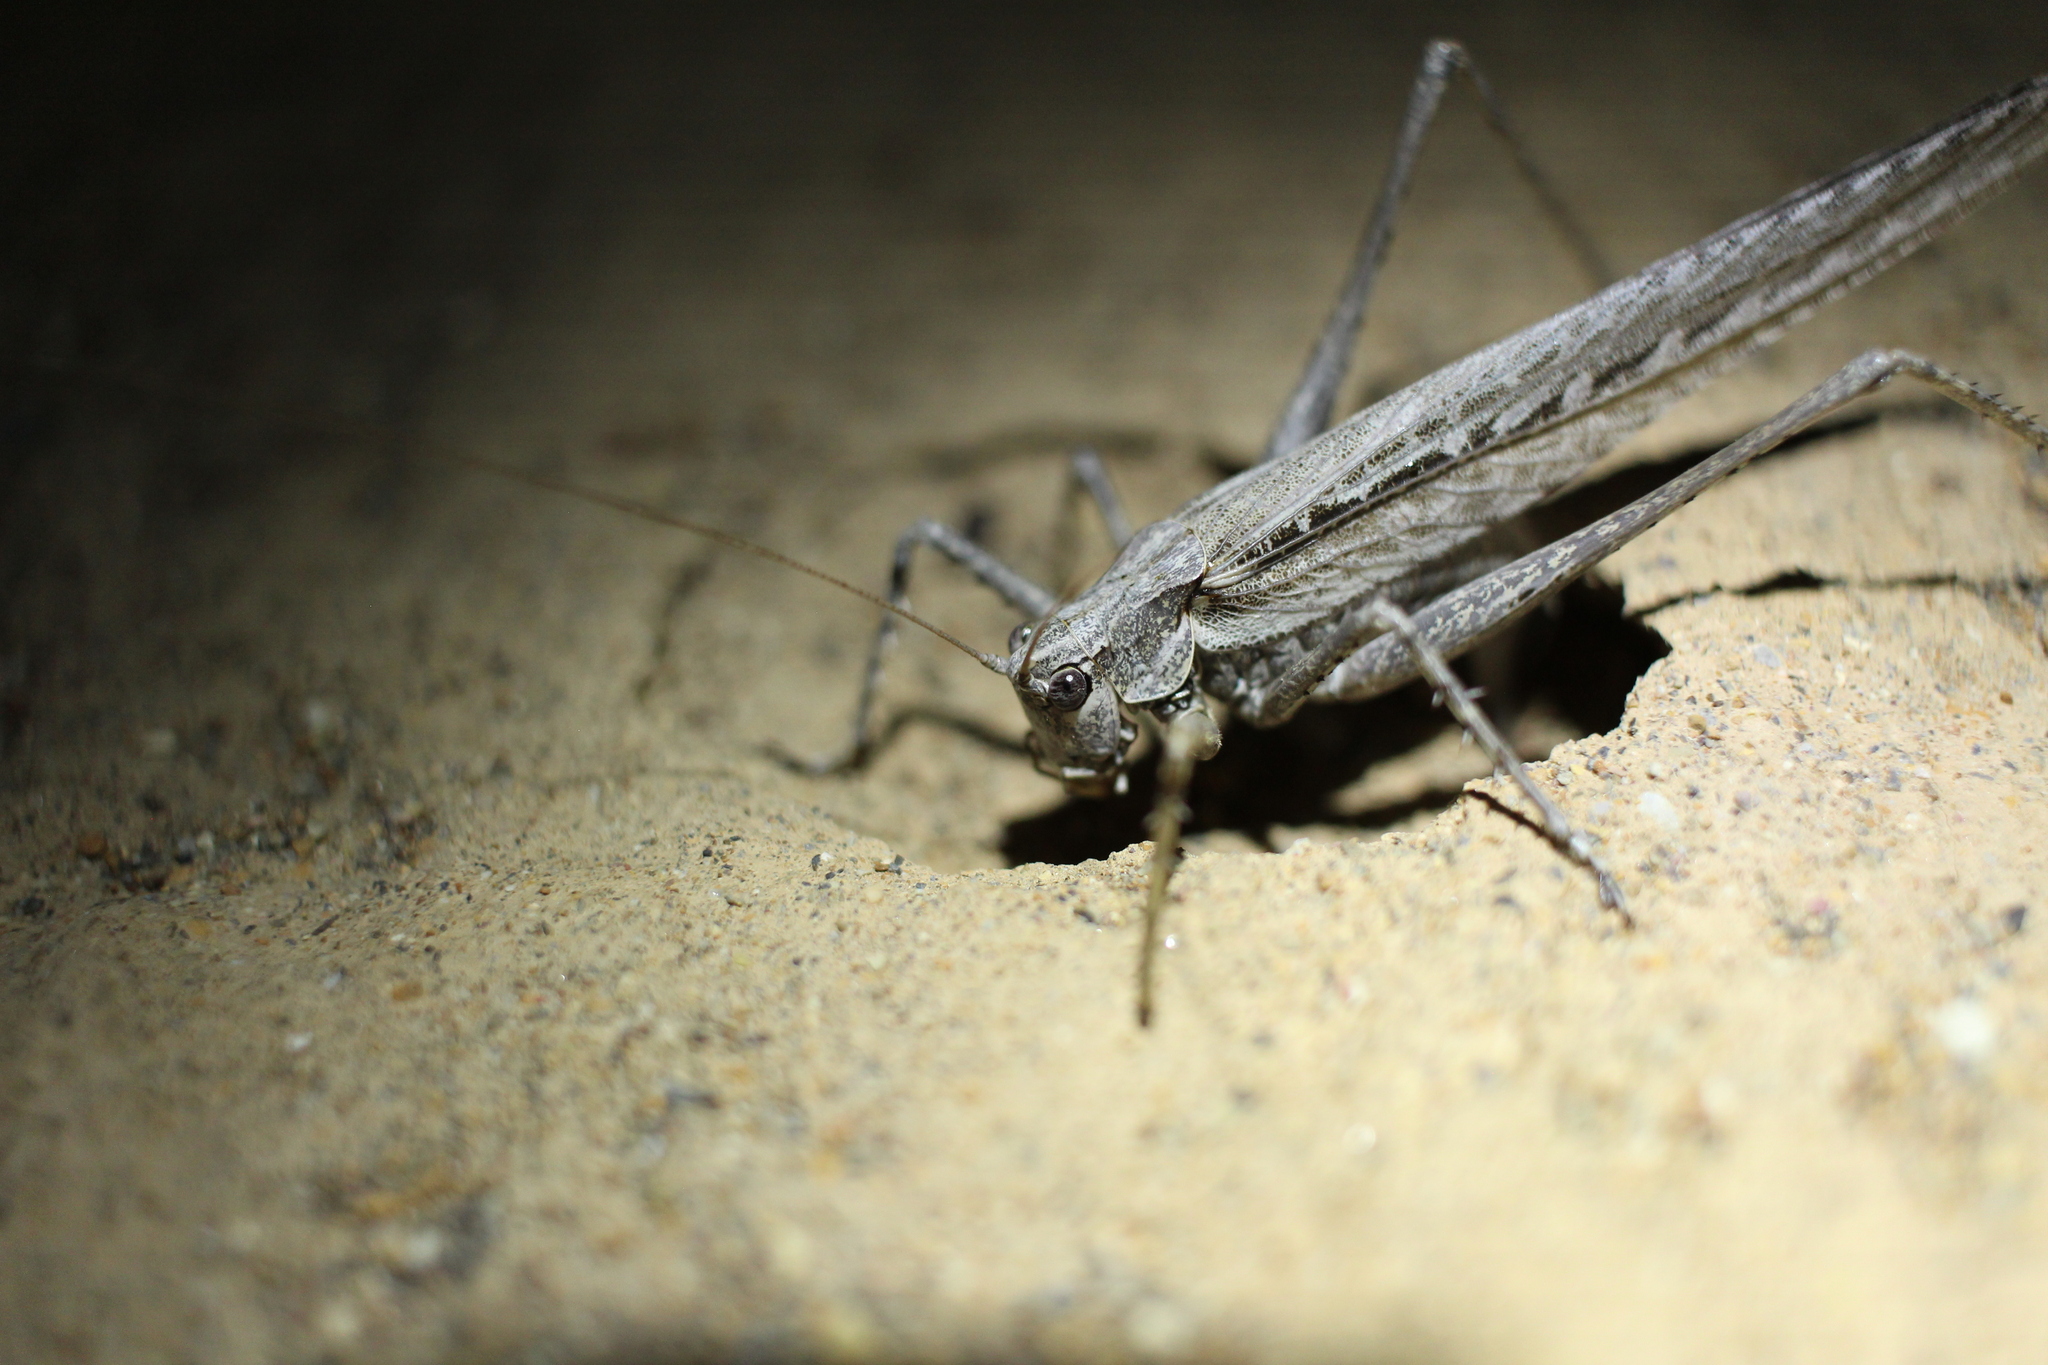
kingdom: Animalia
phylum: Arthropoda
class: Insecta
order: Orthoptera
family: Tettigoniidae
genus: Capnobotes
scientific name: Capnobotes occidentalis
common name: Western longwing
